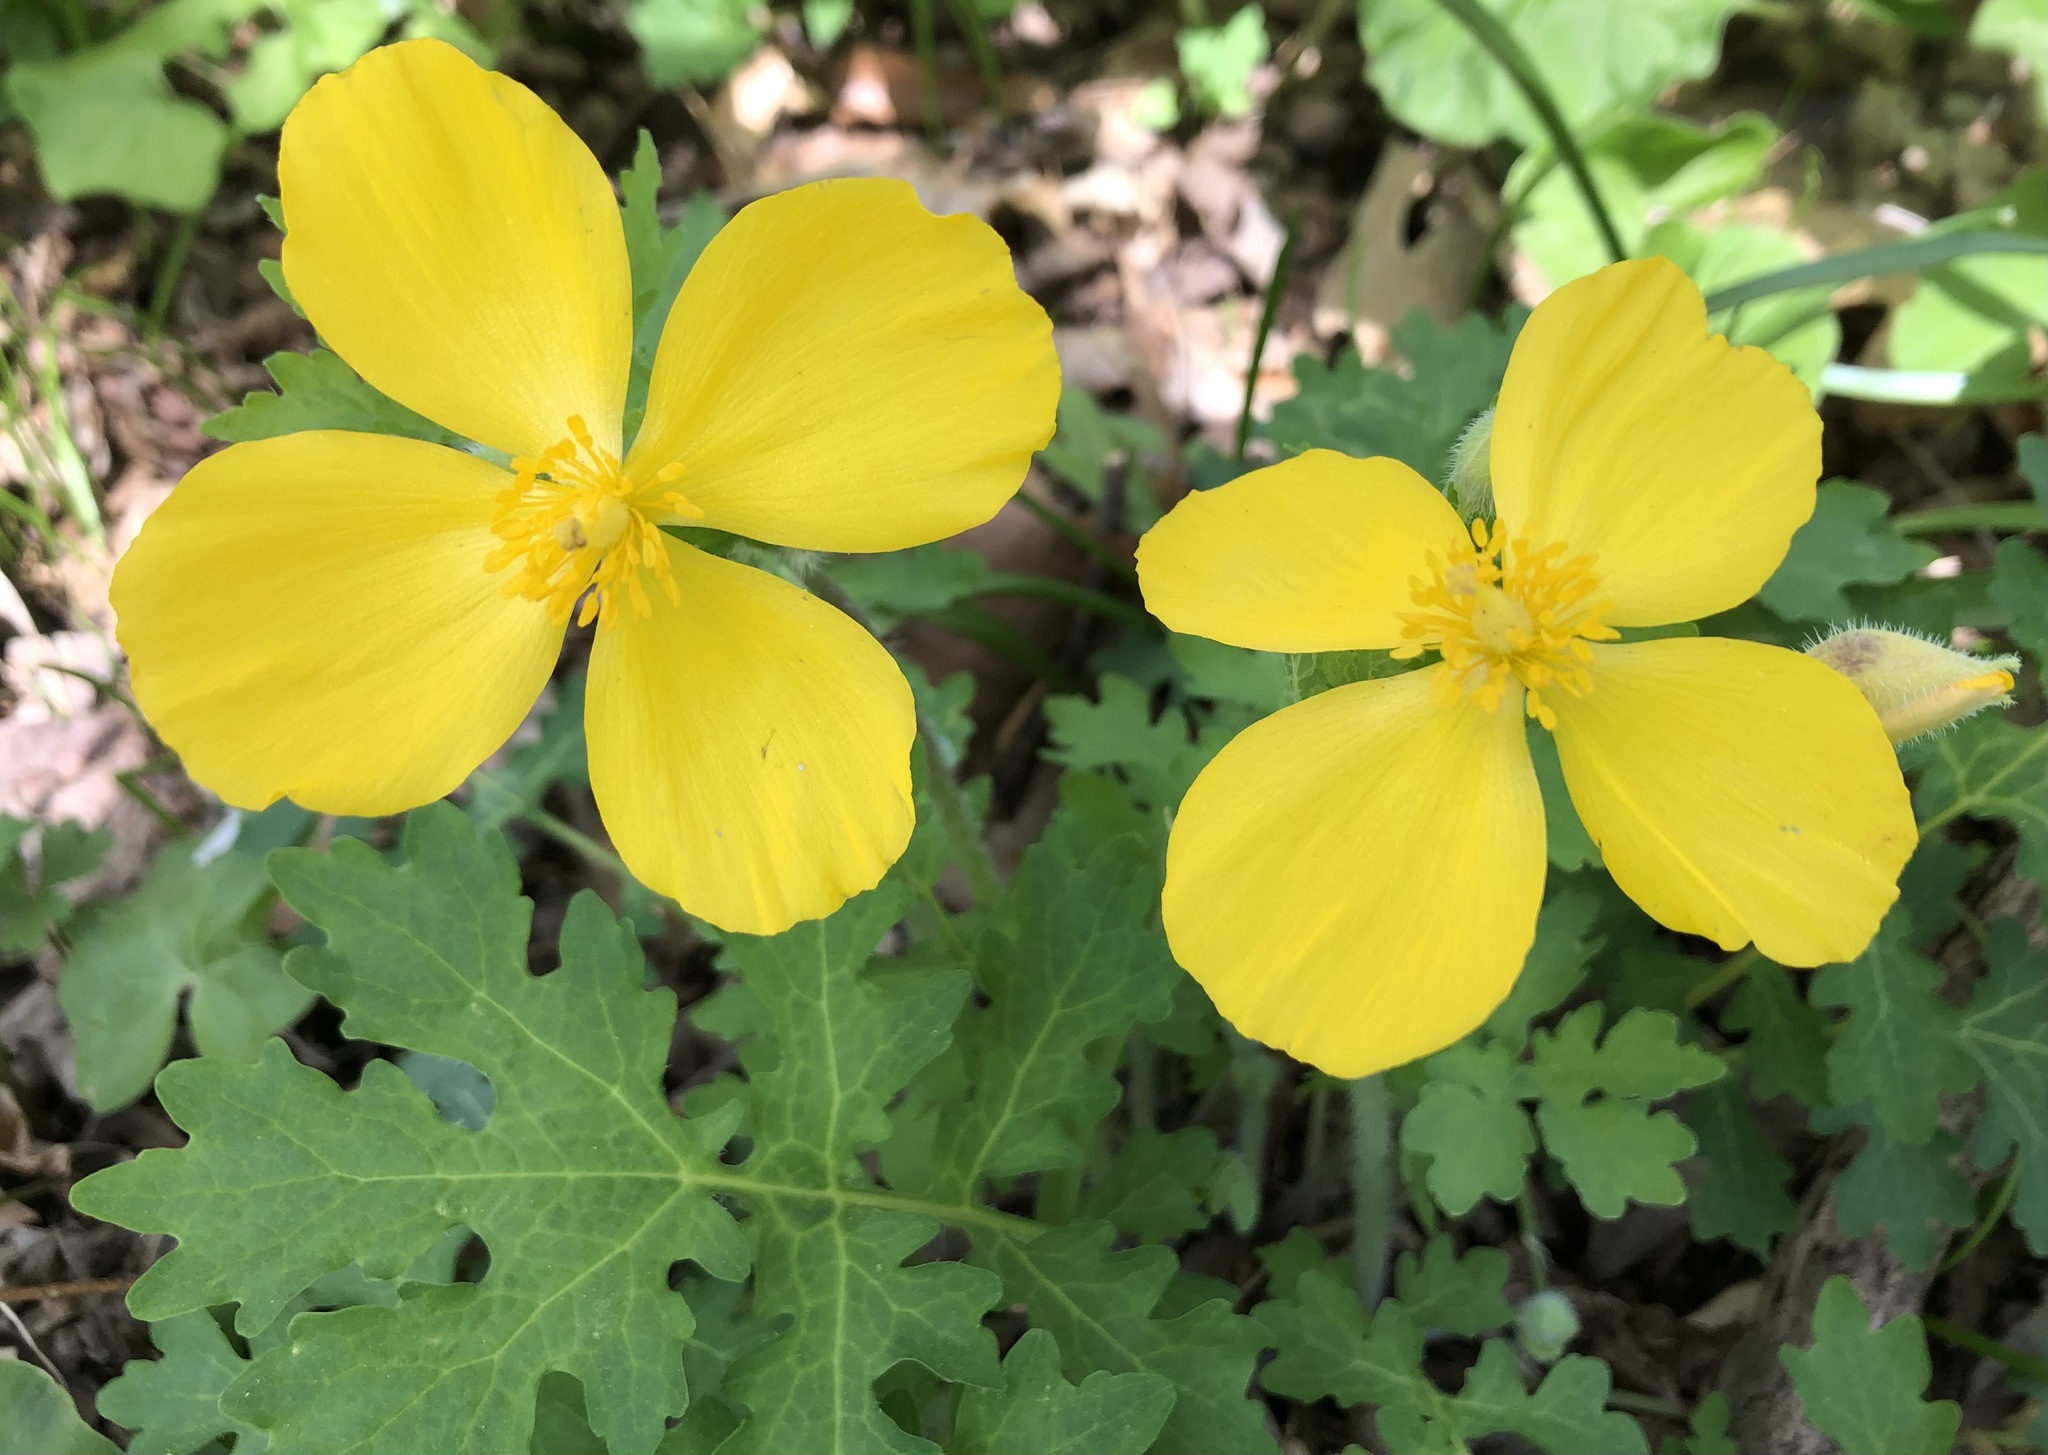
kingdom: Plantae
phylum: Tracheophyta
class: Magnoliopsida
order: Ranunculales
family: Papaveraceae
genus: Stylophorum
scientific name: Stylophorum diphyllum
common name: Celandine poppy
